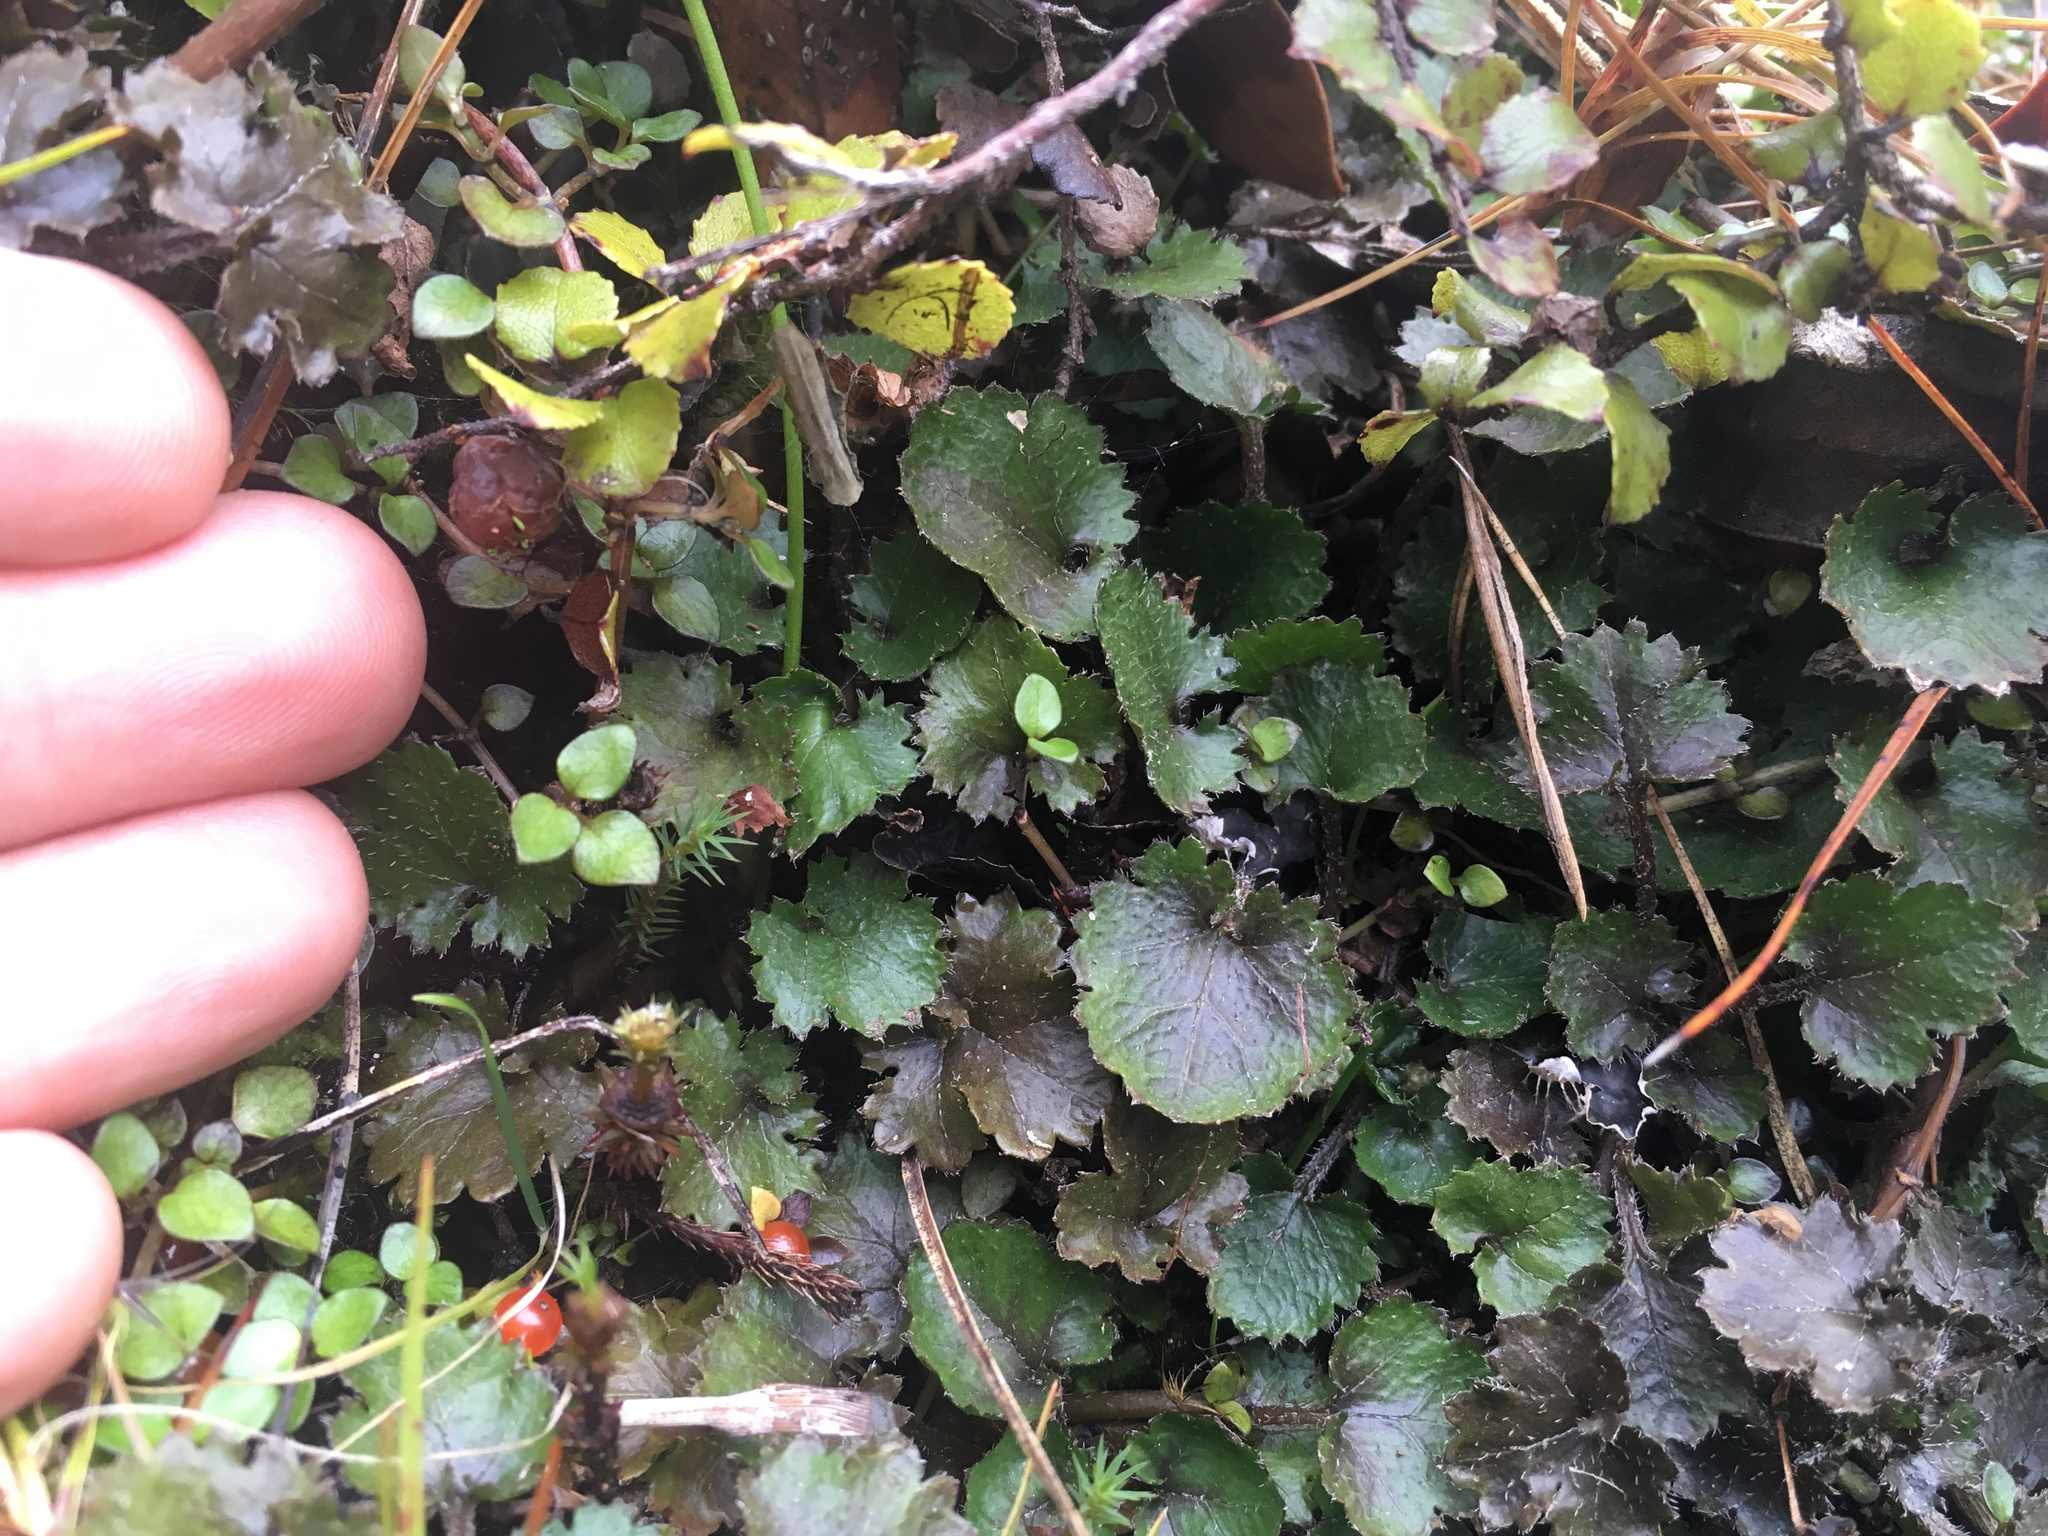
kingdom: Plantae
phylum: Tracheophyta
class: Magnoliopsida
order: Gunnerales
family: Gunneraceae
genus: Gunnera
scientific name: Gunnera monoica
